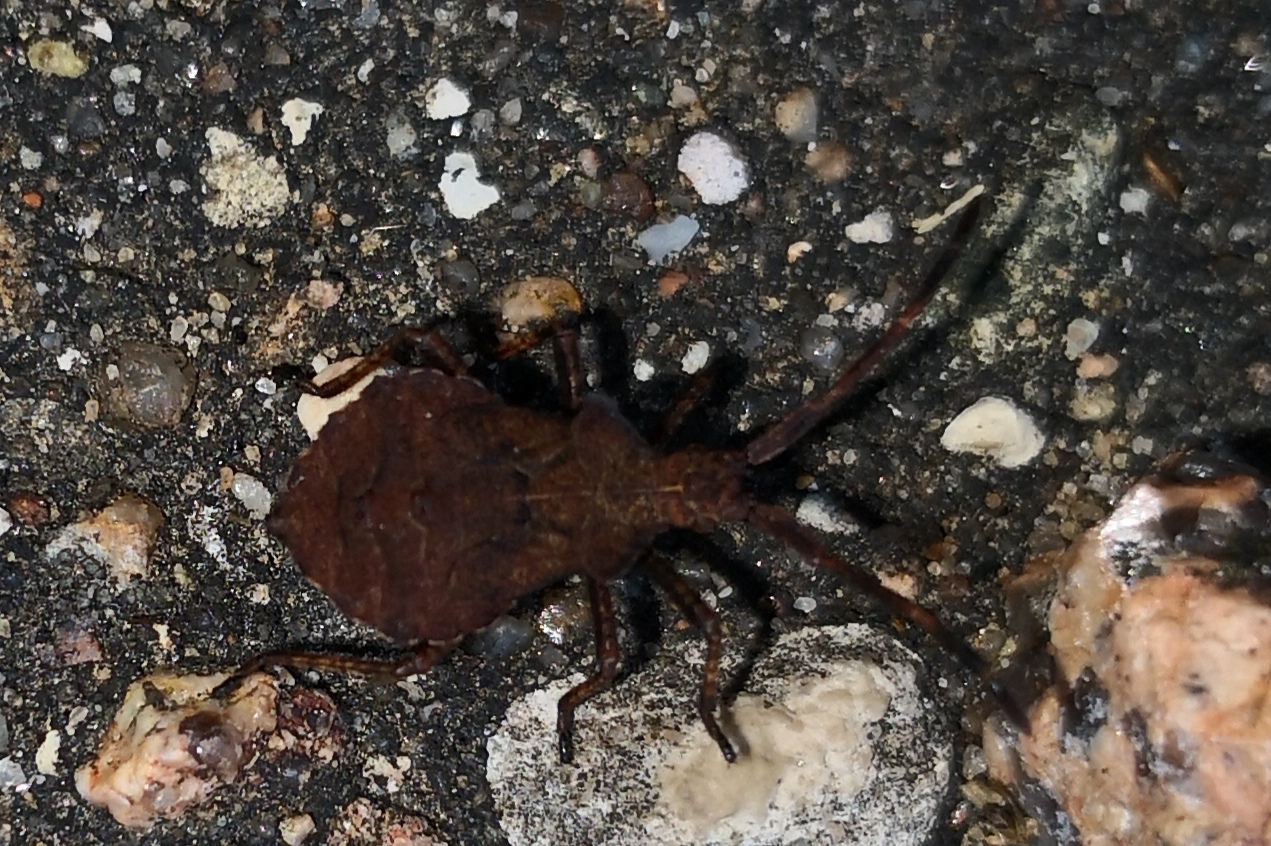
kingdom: Animalia
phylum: Arthropoda
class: Insecta
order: Hemiptera
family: Coreidae
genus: Coreus
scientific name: Coreus marginatus
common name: Dock bug
